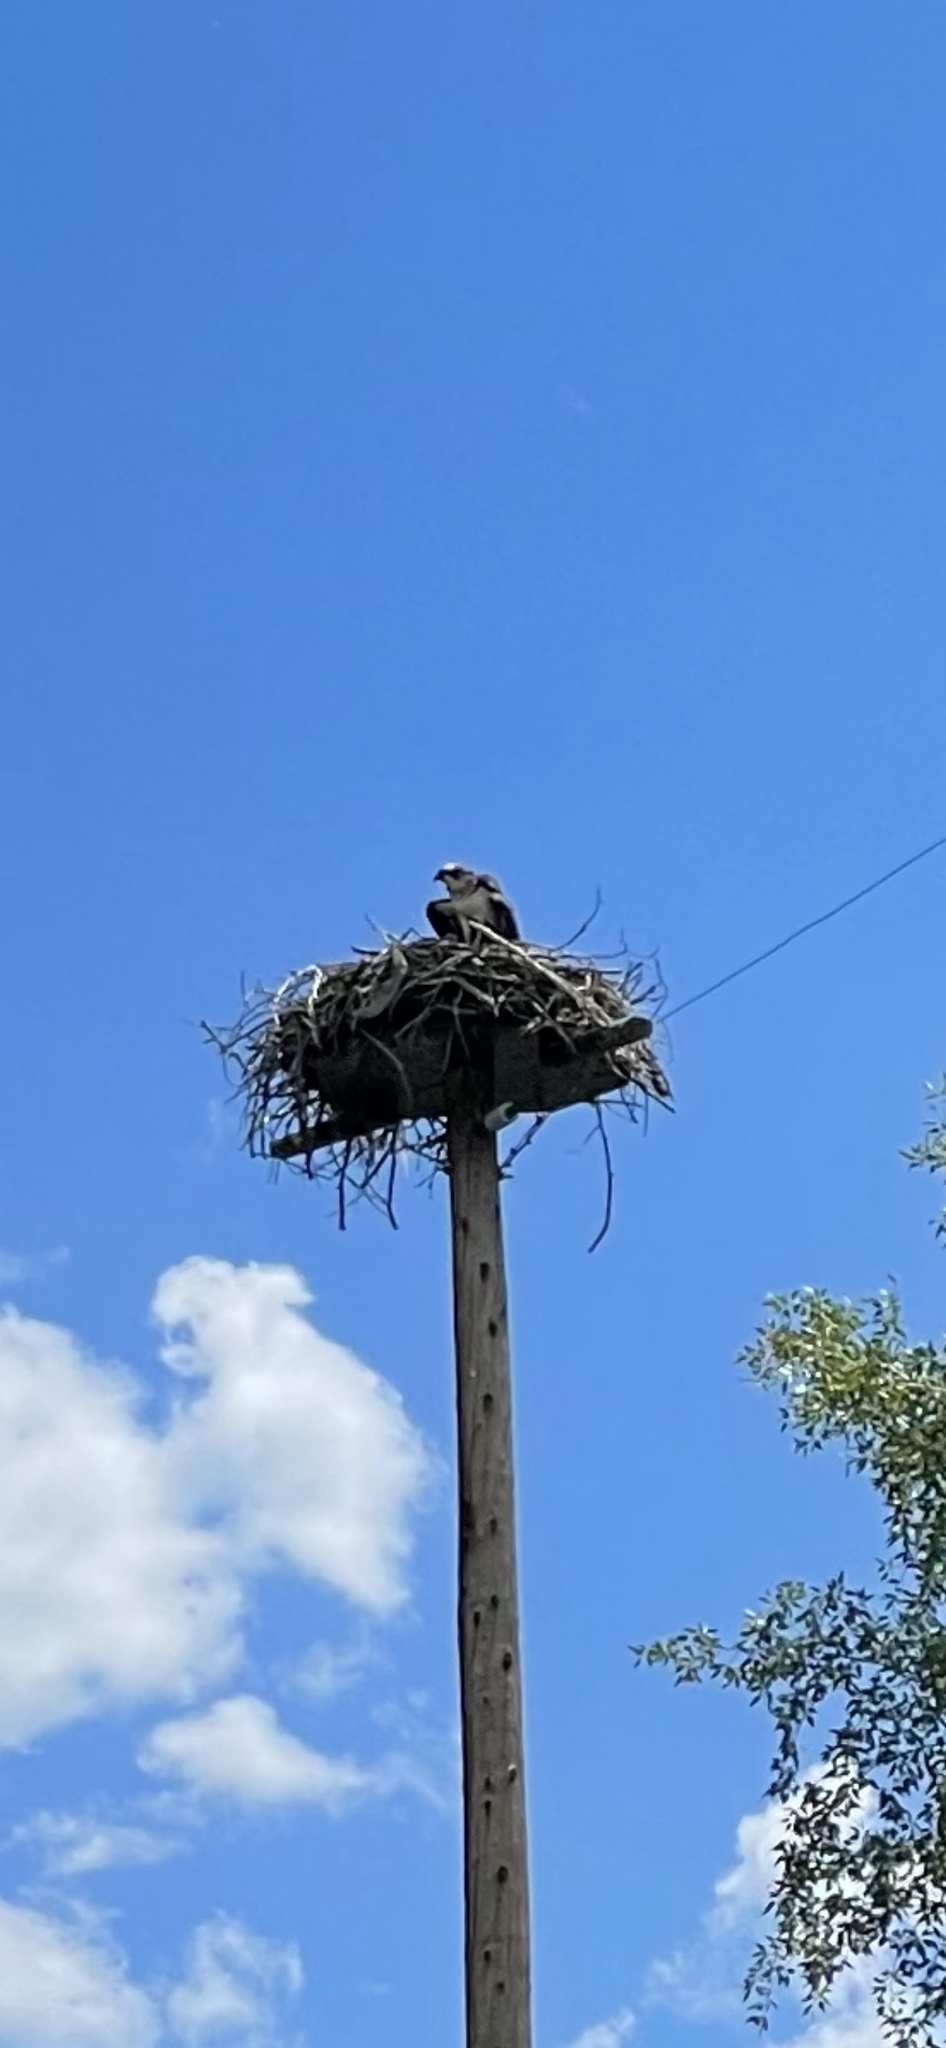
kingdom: Animalia
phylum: Chordata
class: Aves
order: Accipitriformes
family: Pandionidae
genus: Pandion
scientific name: Pandion haliaetus
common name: Osprey
